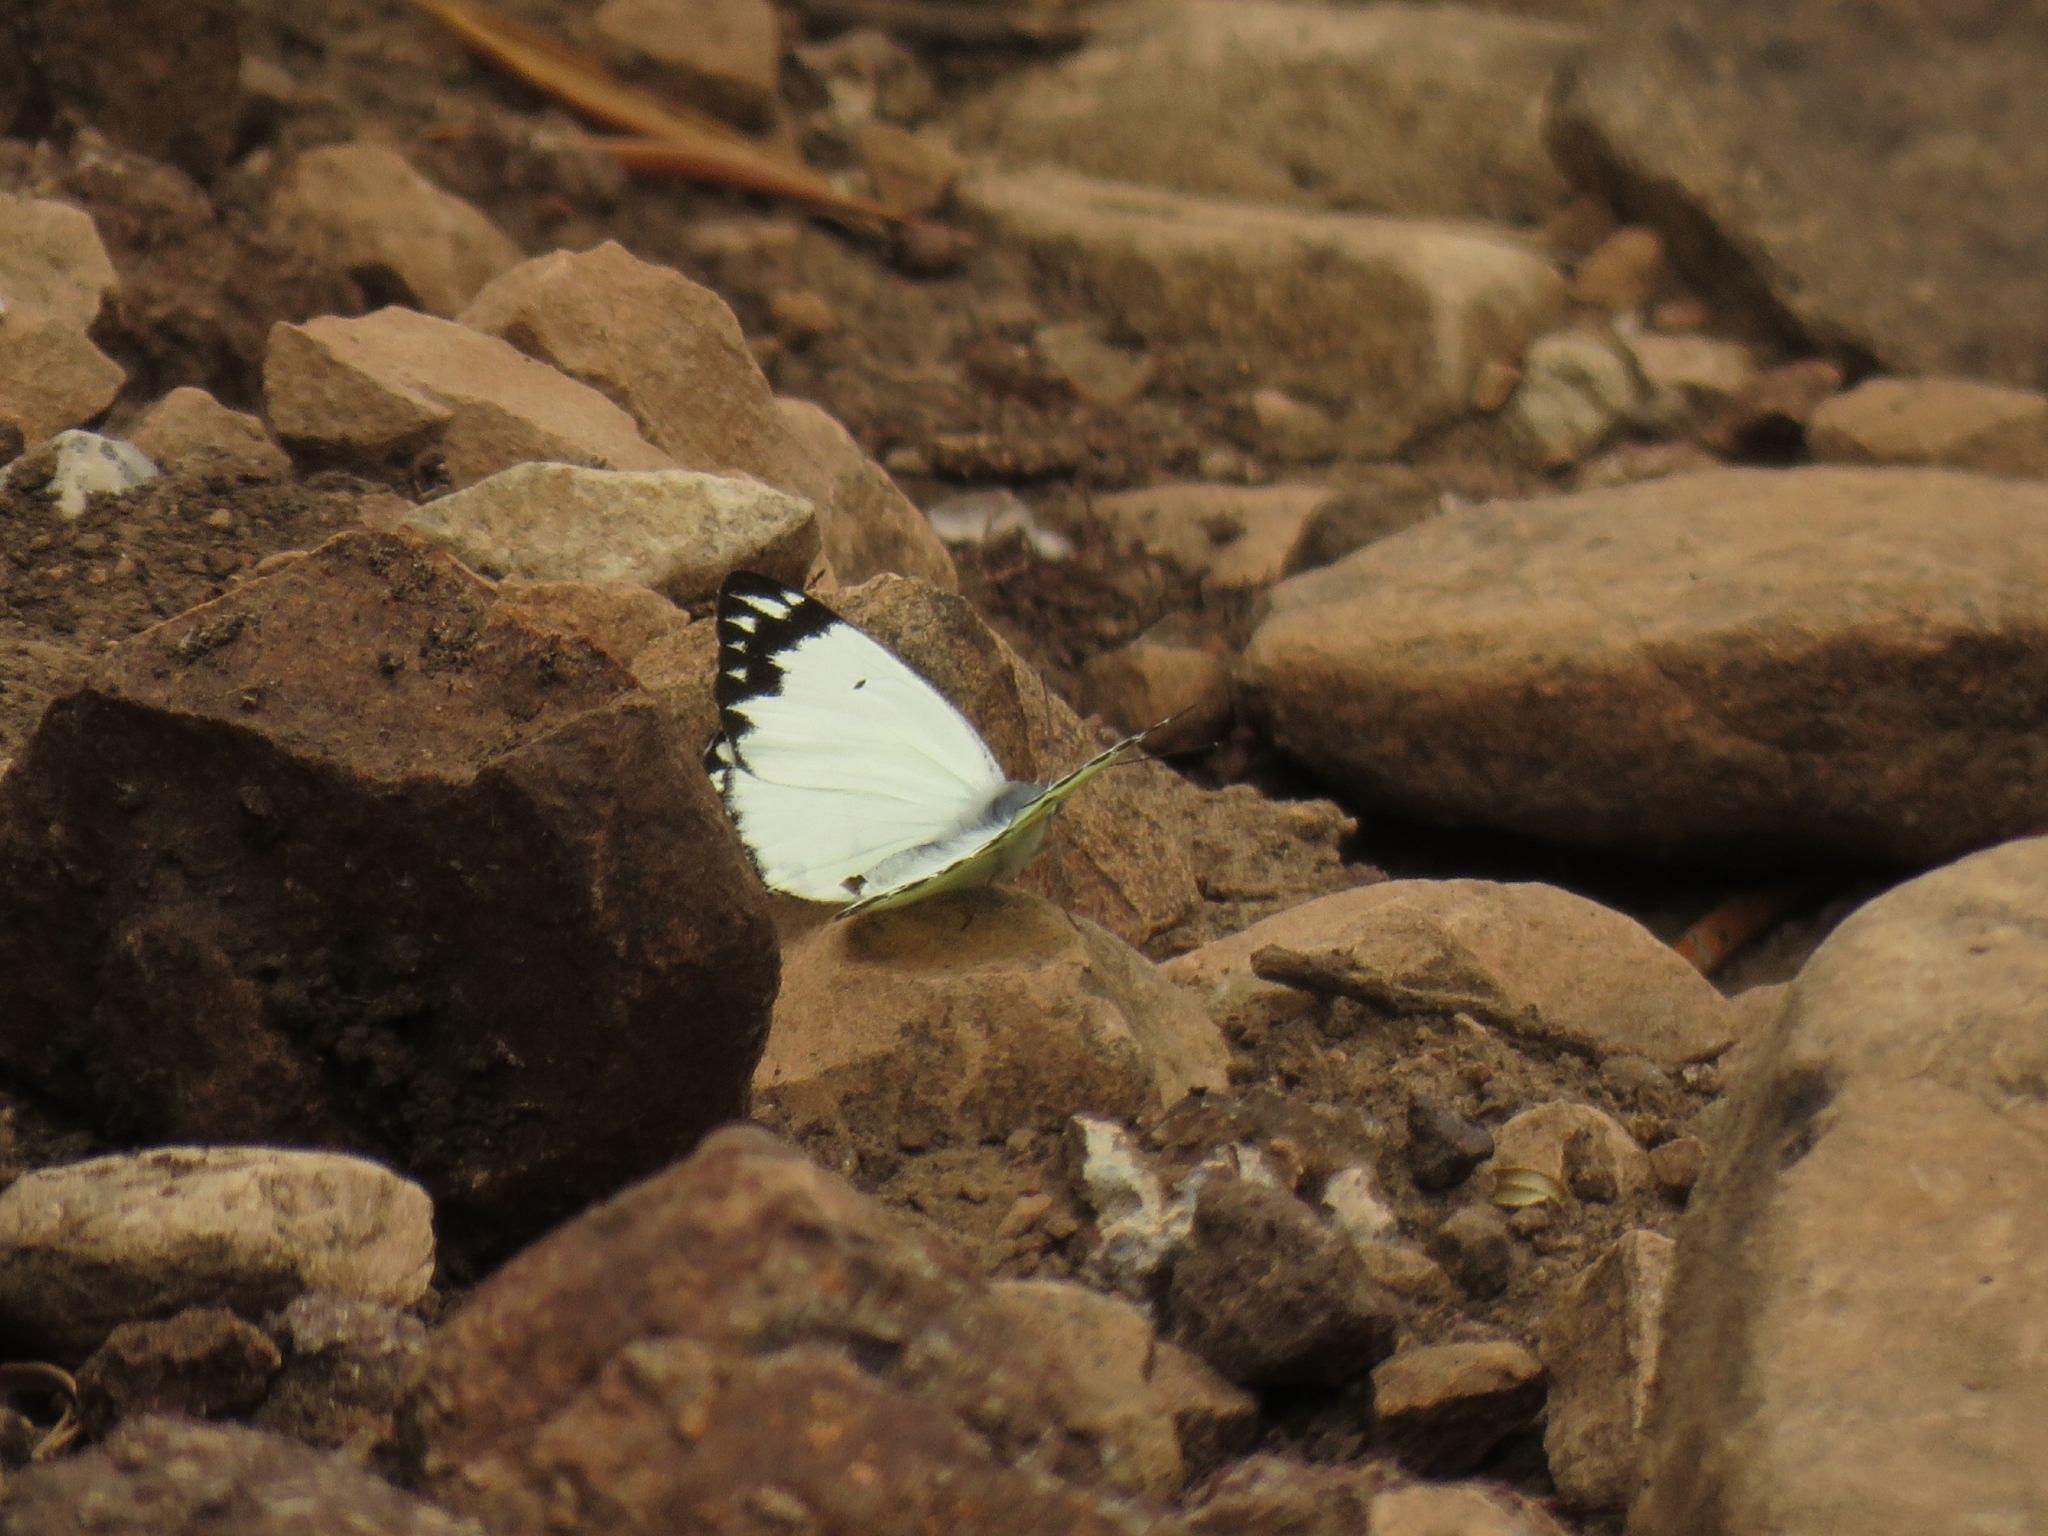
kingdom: Animalia
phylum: Arthropoda
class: Insecta
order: Lepidoptera
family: Pieridae
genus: Belenois
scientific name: Belenois creona
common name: African caper white
